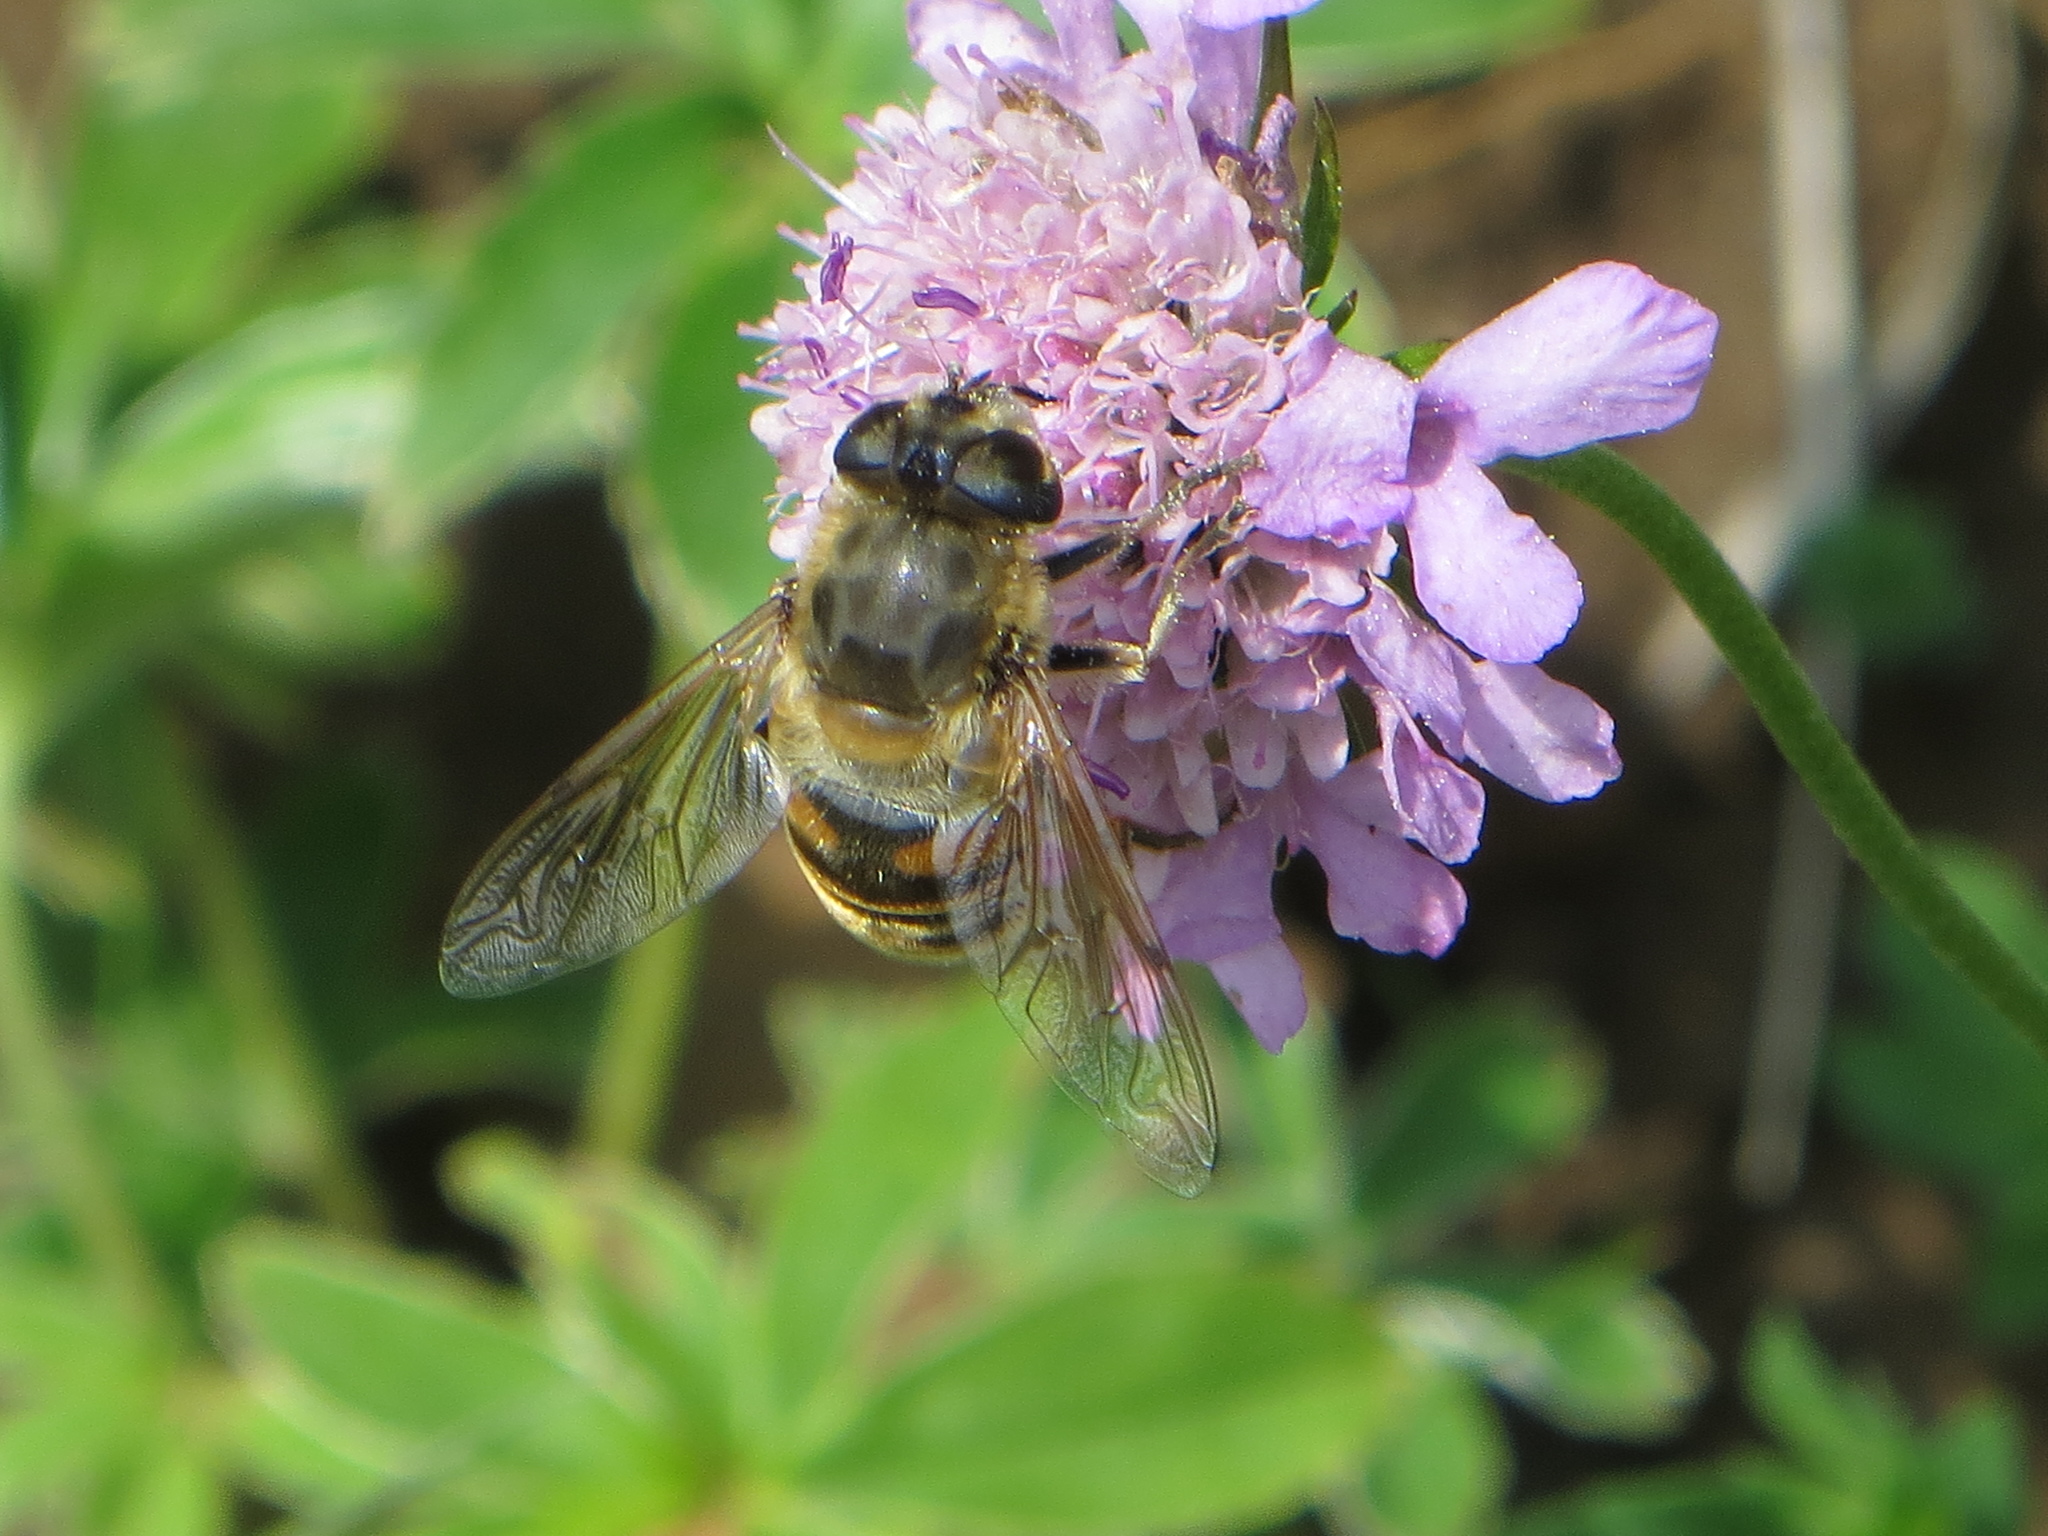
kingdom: Animalia
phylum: Arthropoda
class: Insecta
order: Diptera
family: Syrphidae
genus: Eristalis
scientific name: Eristalis tenax
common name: Drone fly
